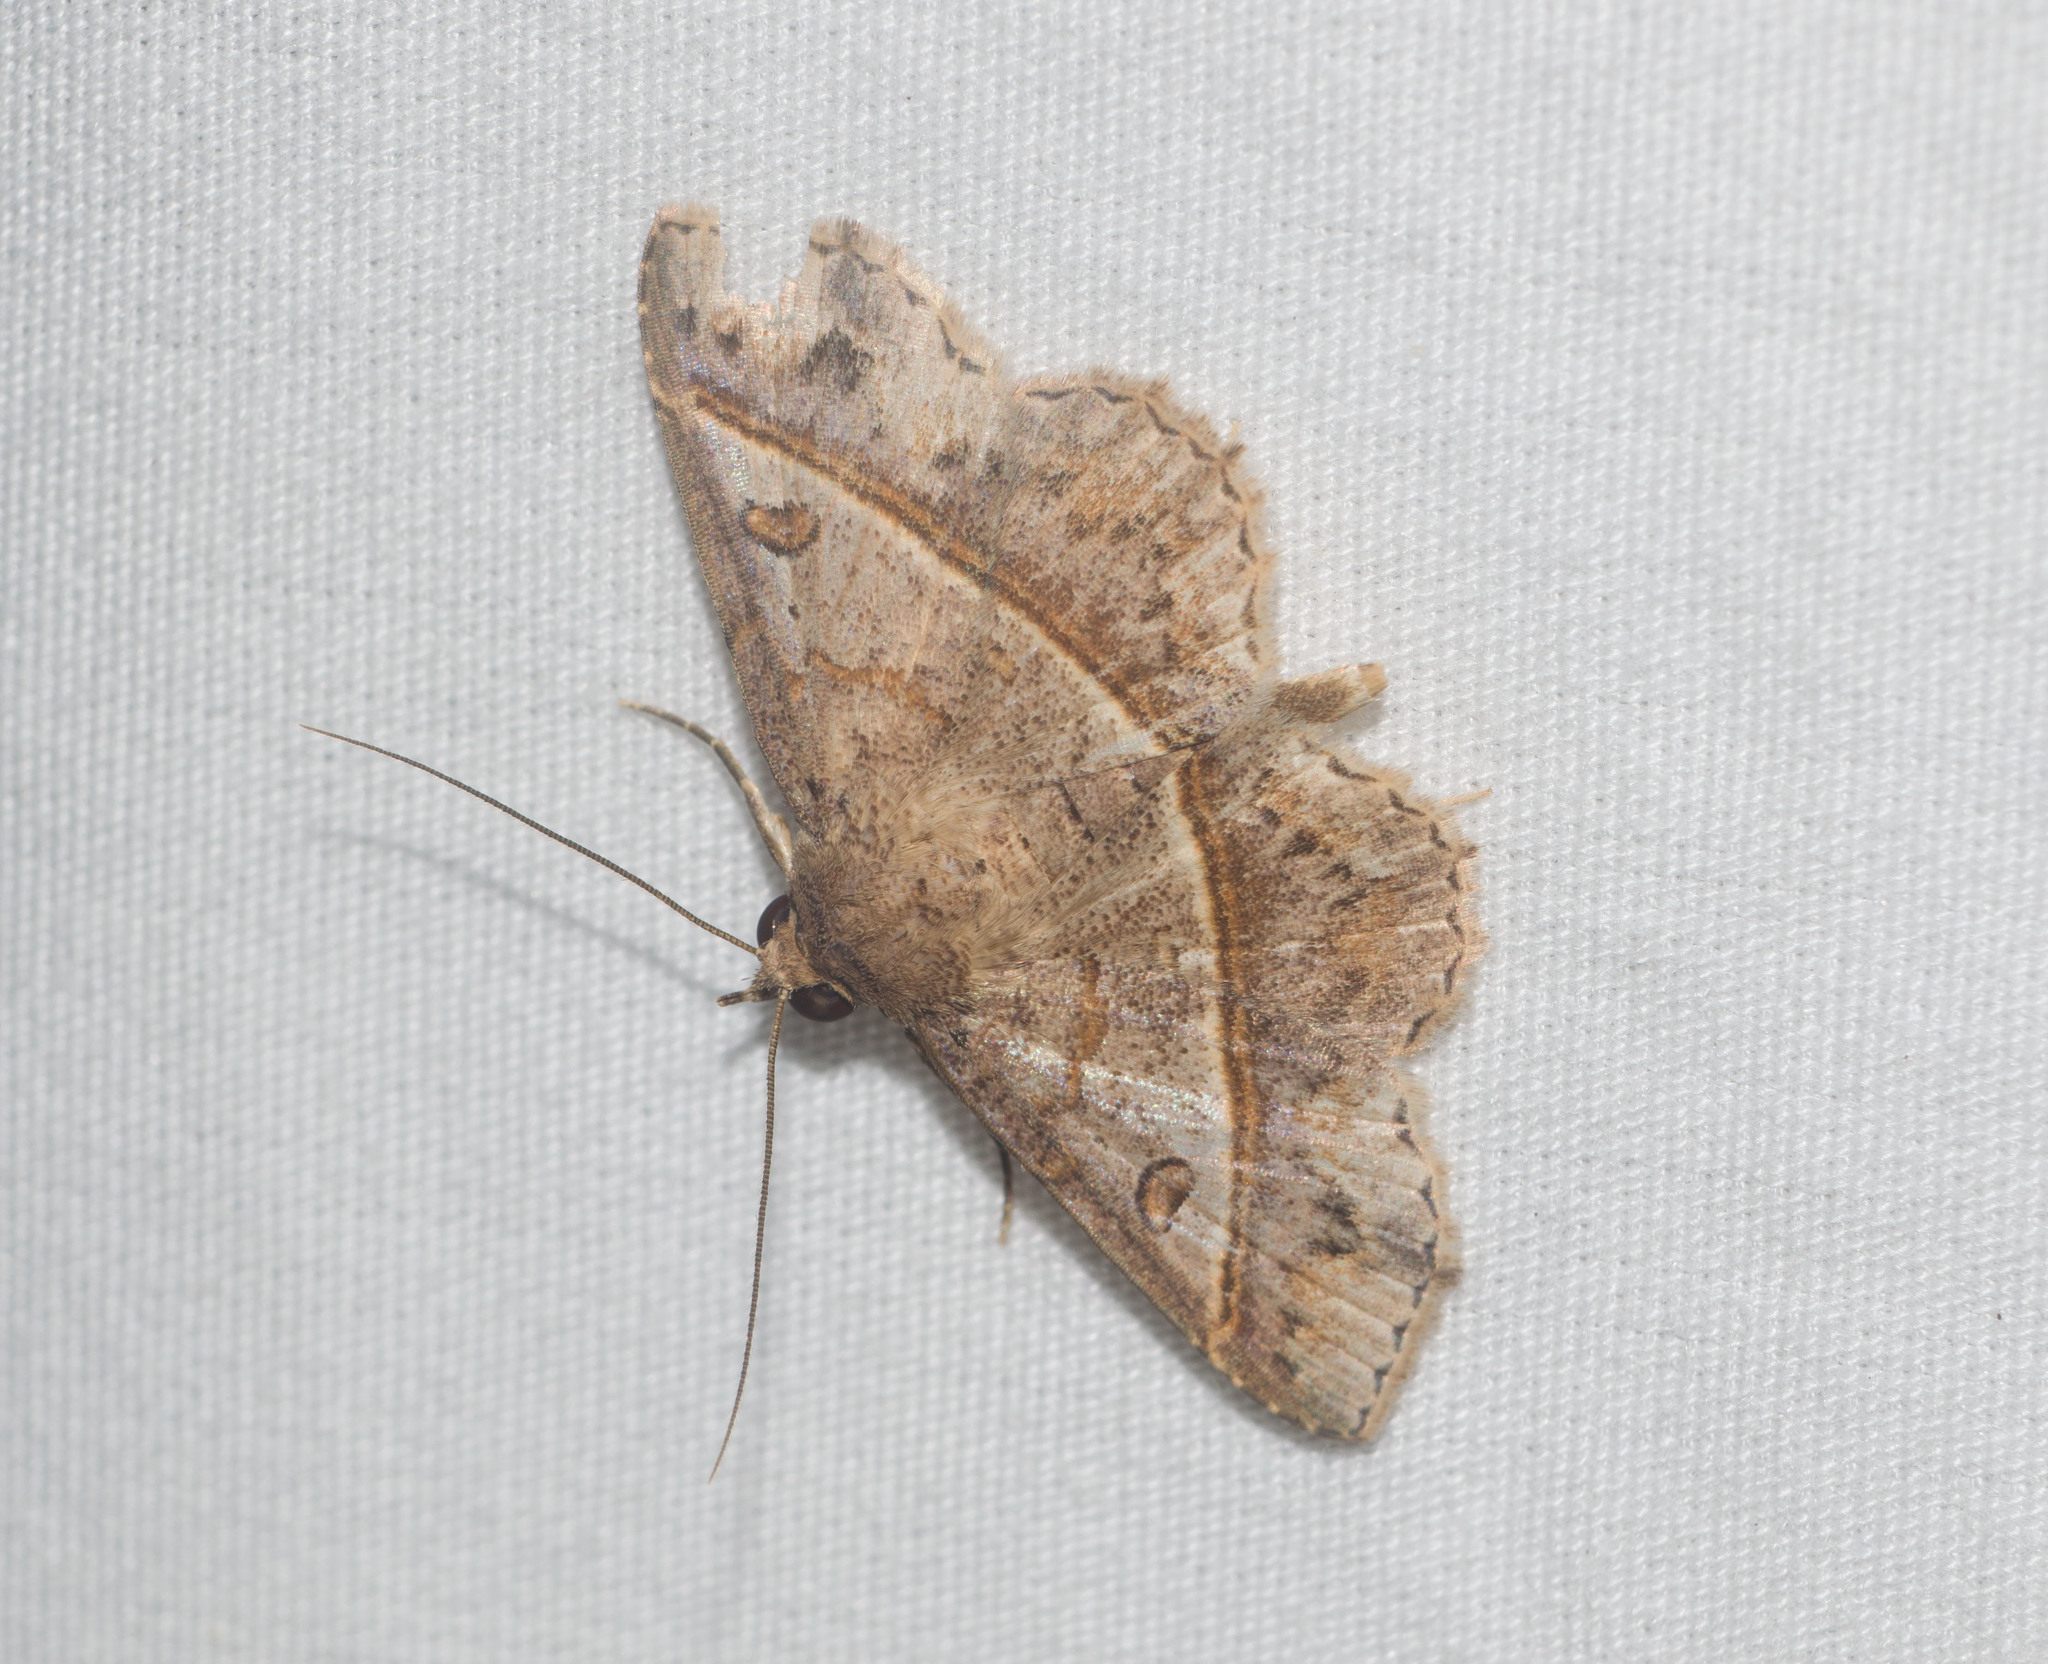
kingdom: Animalia
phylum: Arthropoda
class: Insecta
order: Lepidoptera
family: Erebidae
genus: Antiblemma
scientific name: Antiblemma acclinalis
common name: Moth
